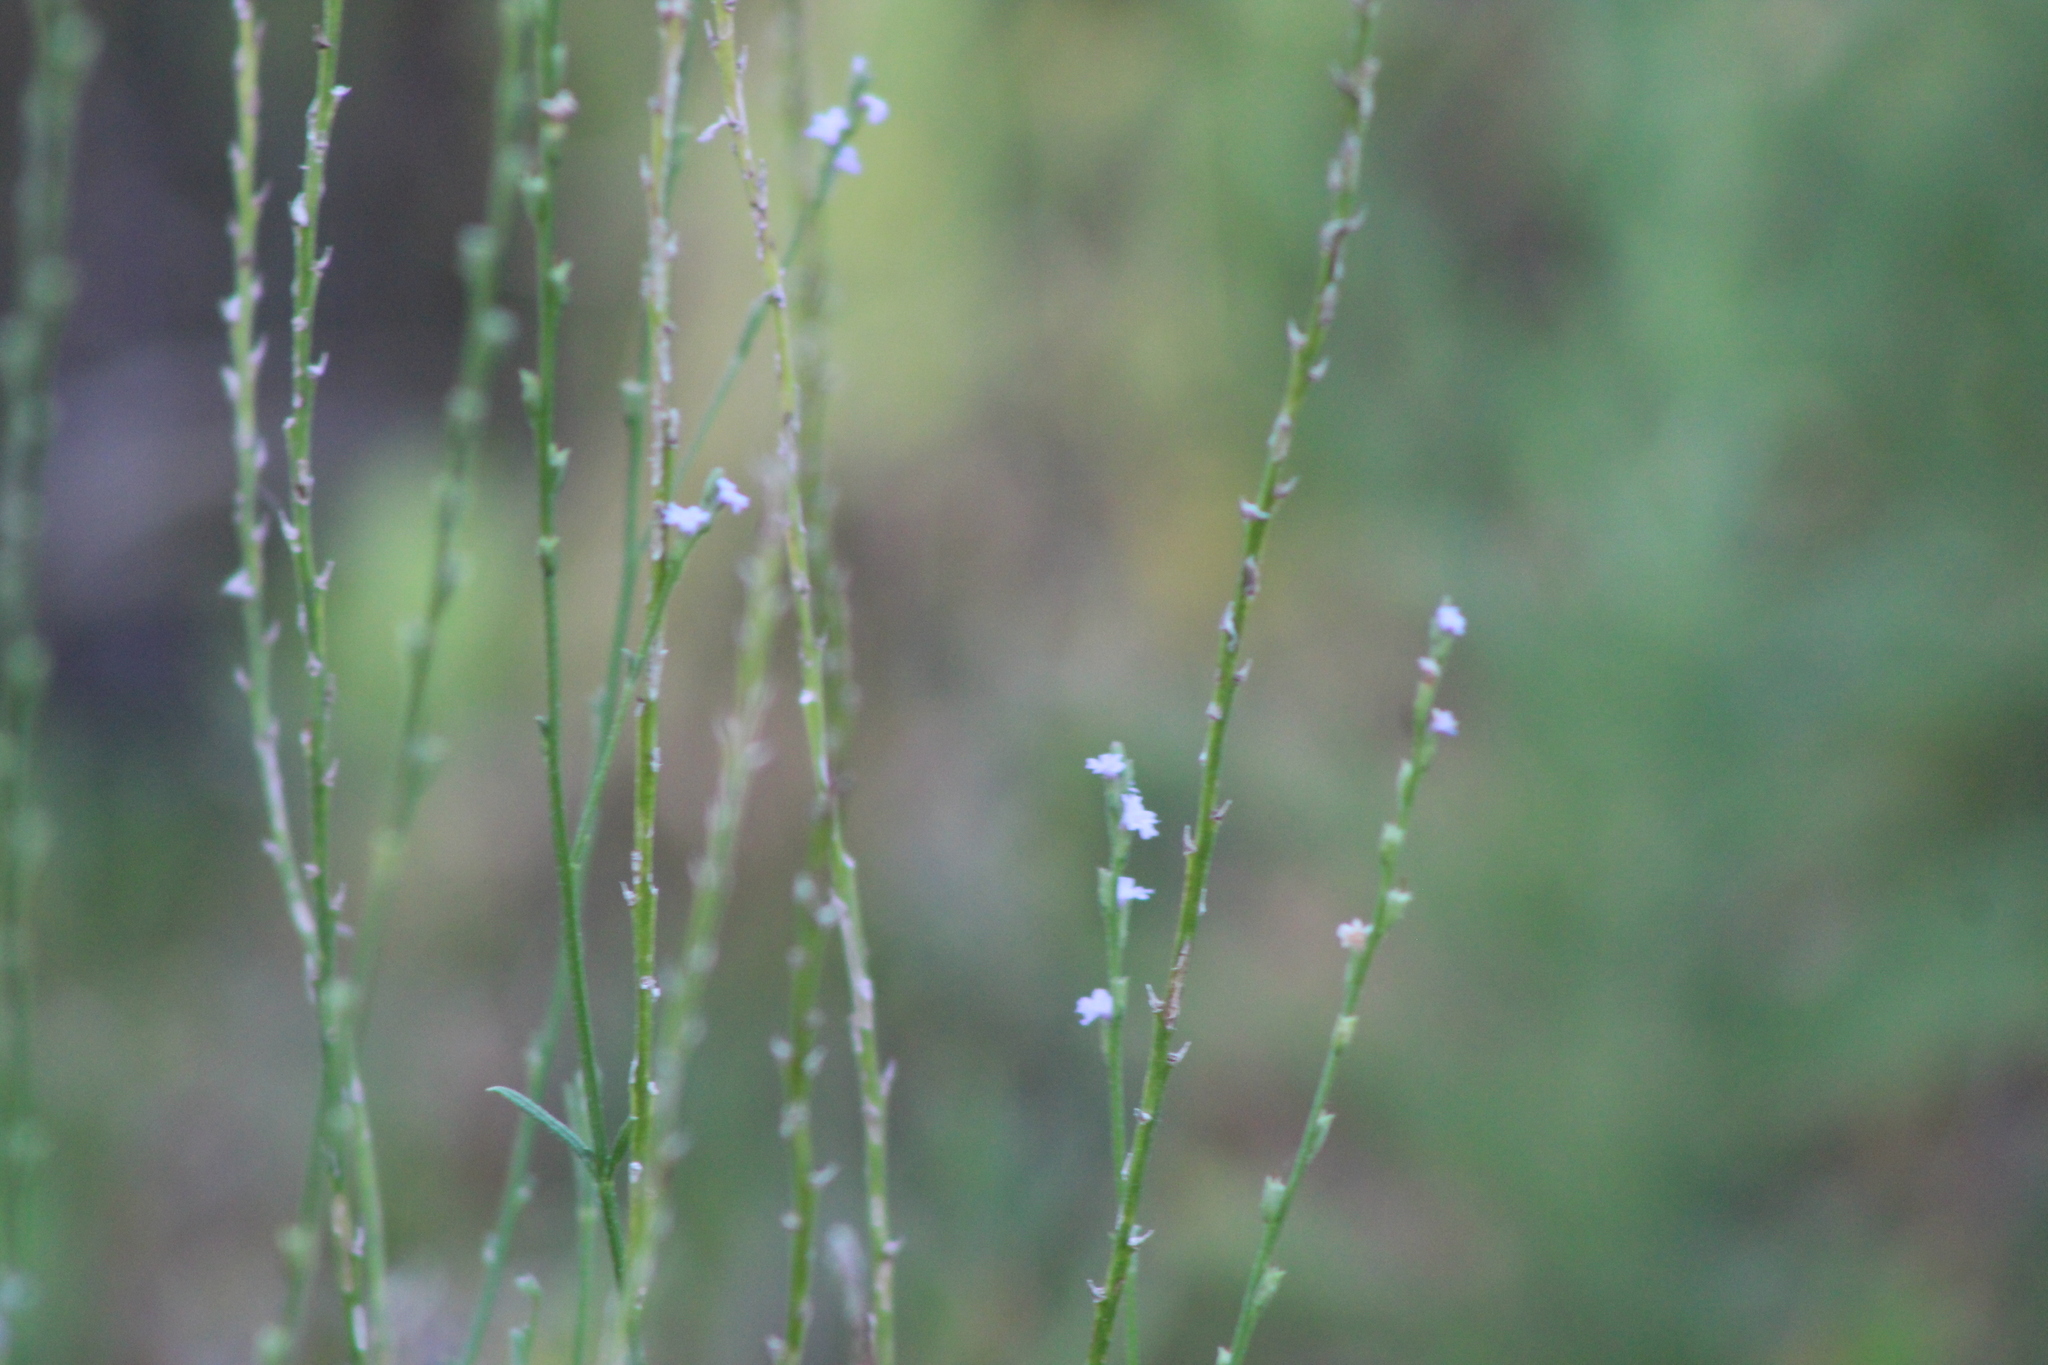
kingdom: Plantae
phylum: Tracheophyta
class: Magnoliopsida
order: Lamiales
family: Verbenaceae
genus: Verbena
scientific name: Verbena halei
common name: Texas vervain
